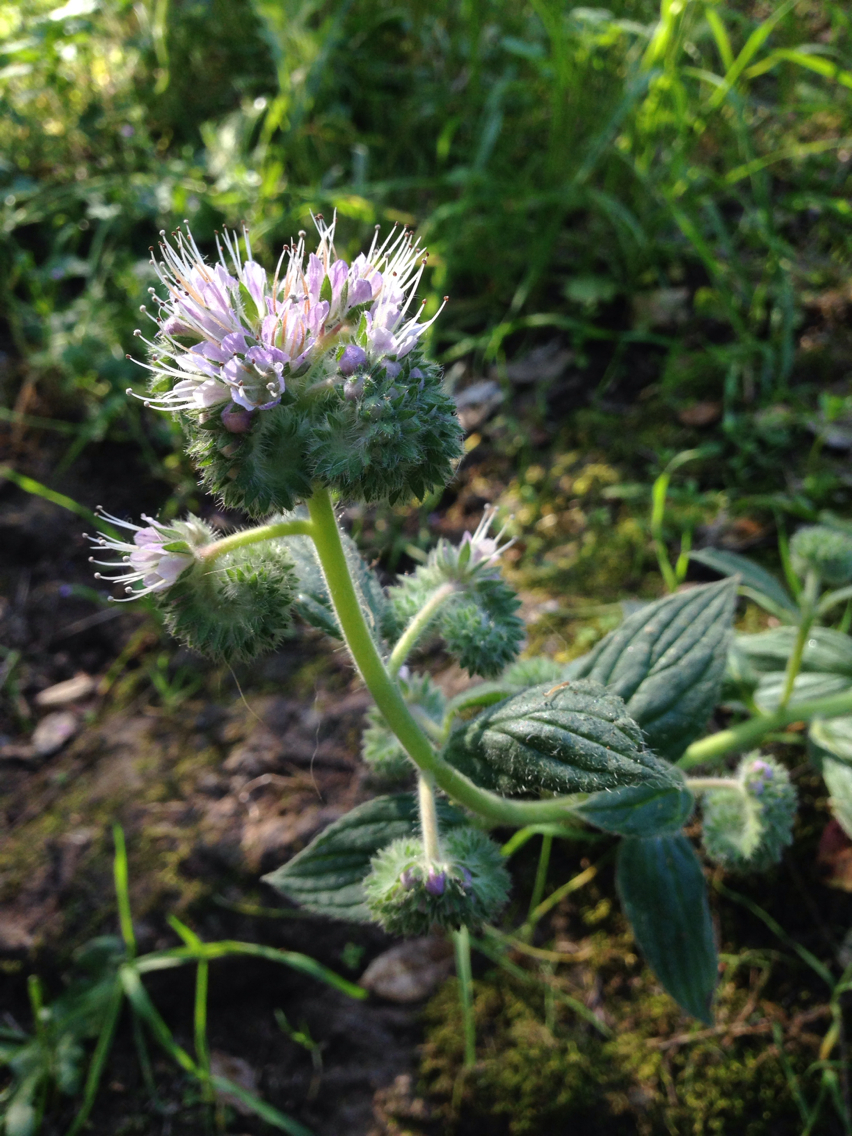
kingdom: Plantae
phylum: Tracheophyta
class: Magnoliopsida
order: Boraginales
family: Hydrophyllaceae
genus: Phacelia
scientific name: Phacelia californica
